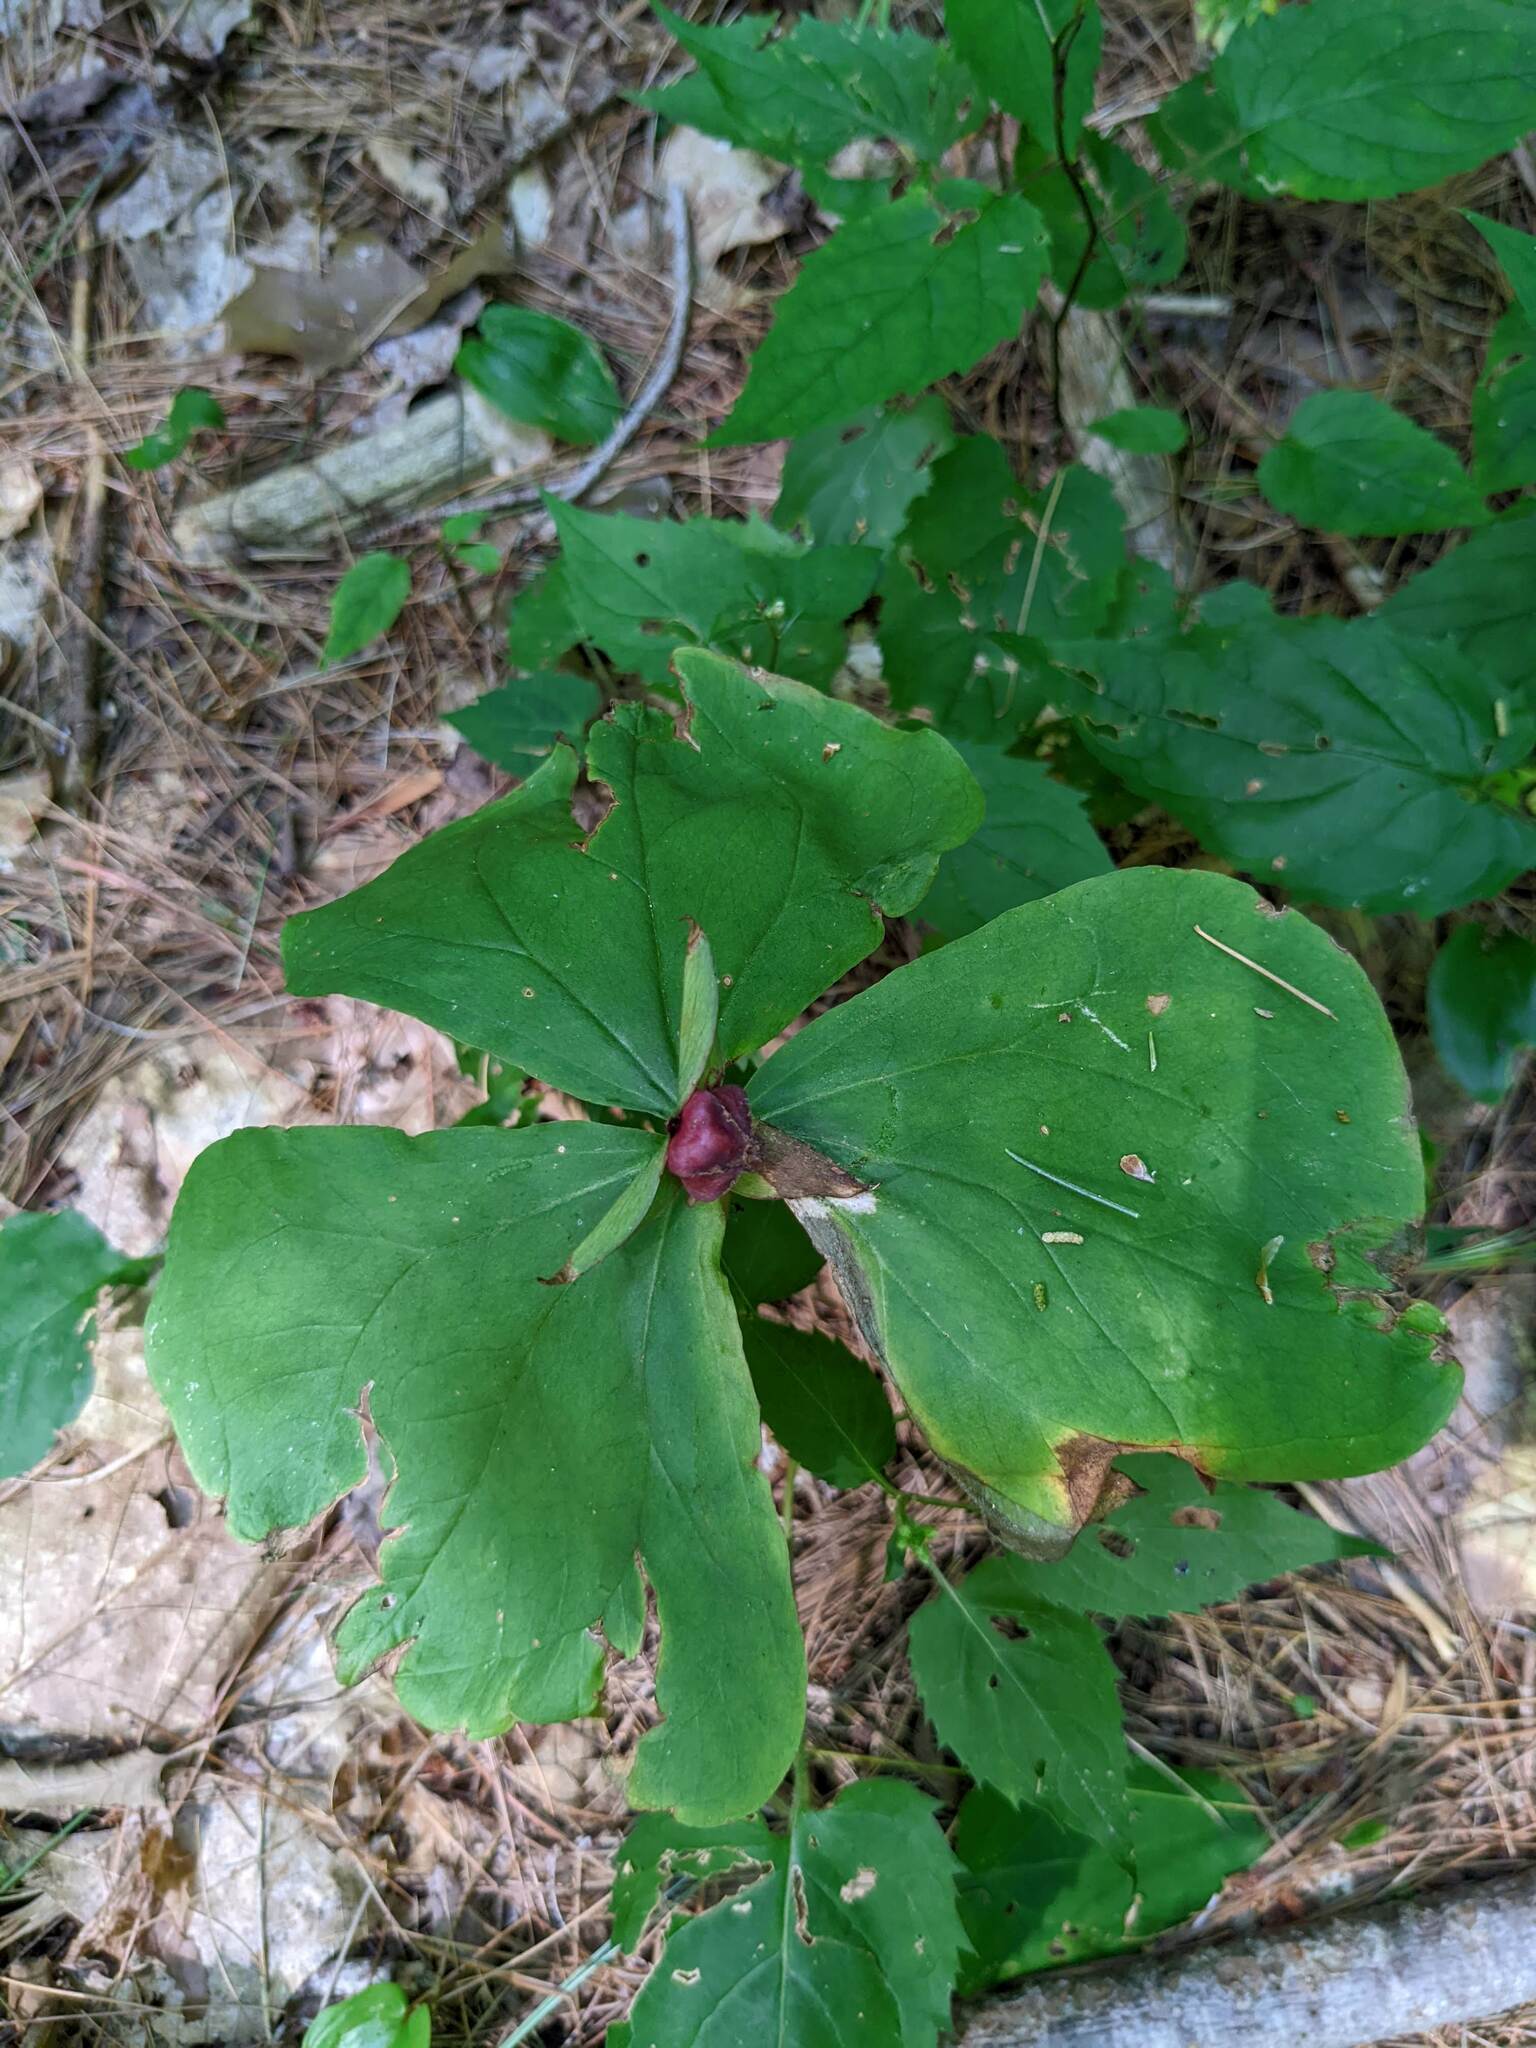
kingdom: Plantae
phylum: Tracheophyta
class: Liliopsida
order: Liliales
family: Melanthiaceae
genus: Trillium
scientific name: Trillium erectum
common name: Purple trillium
